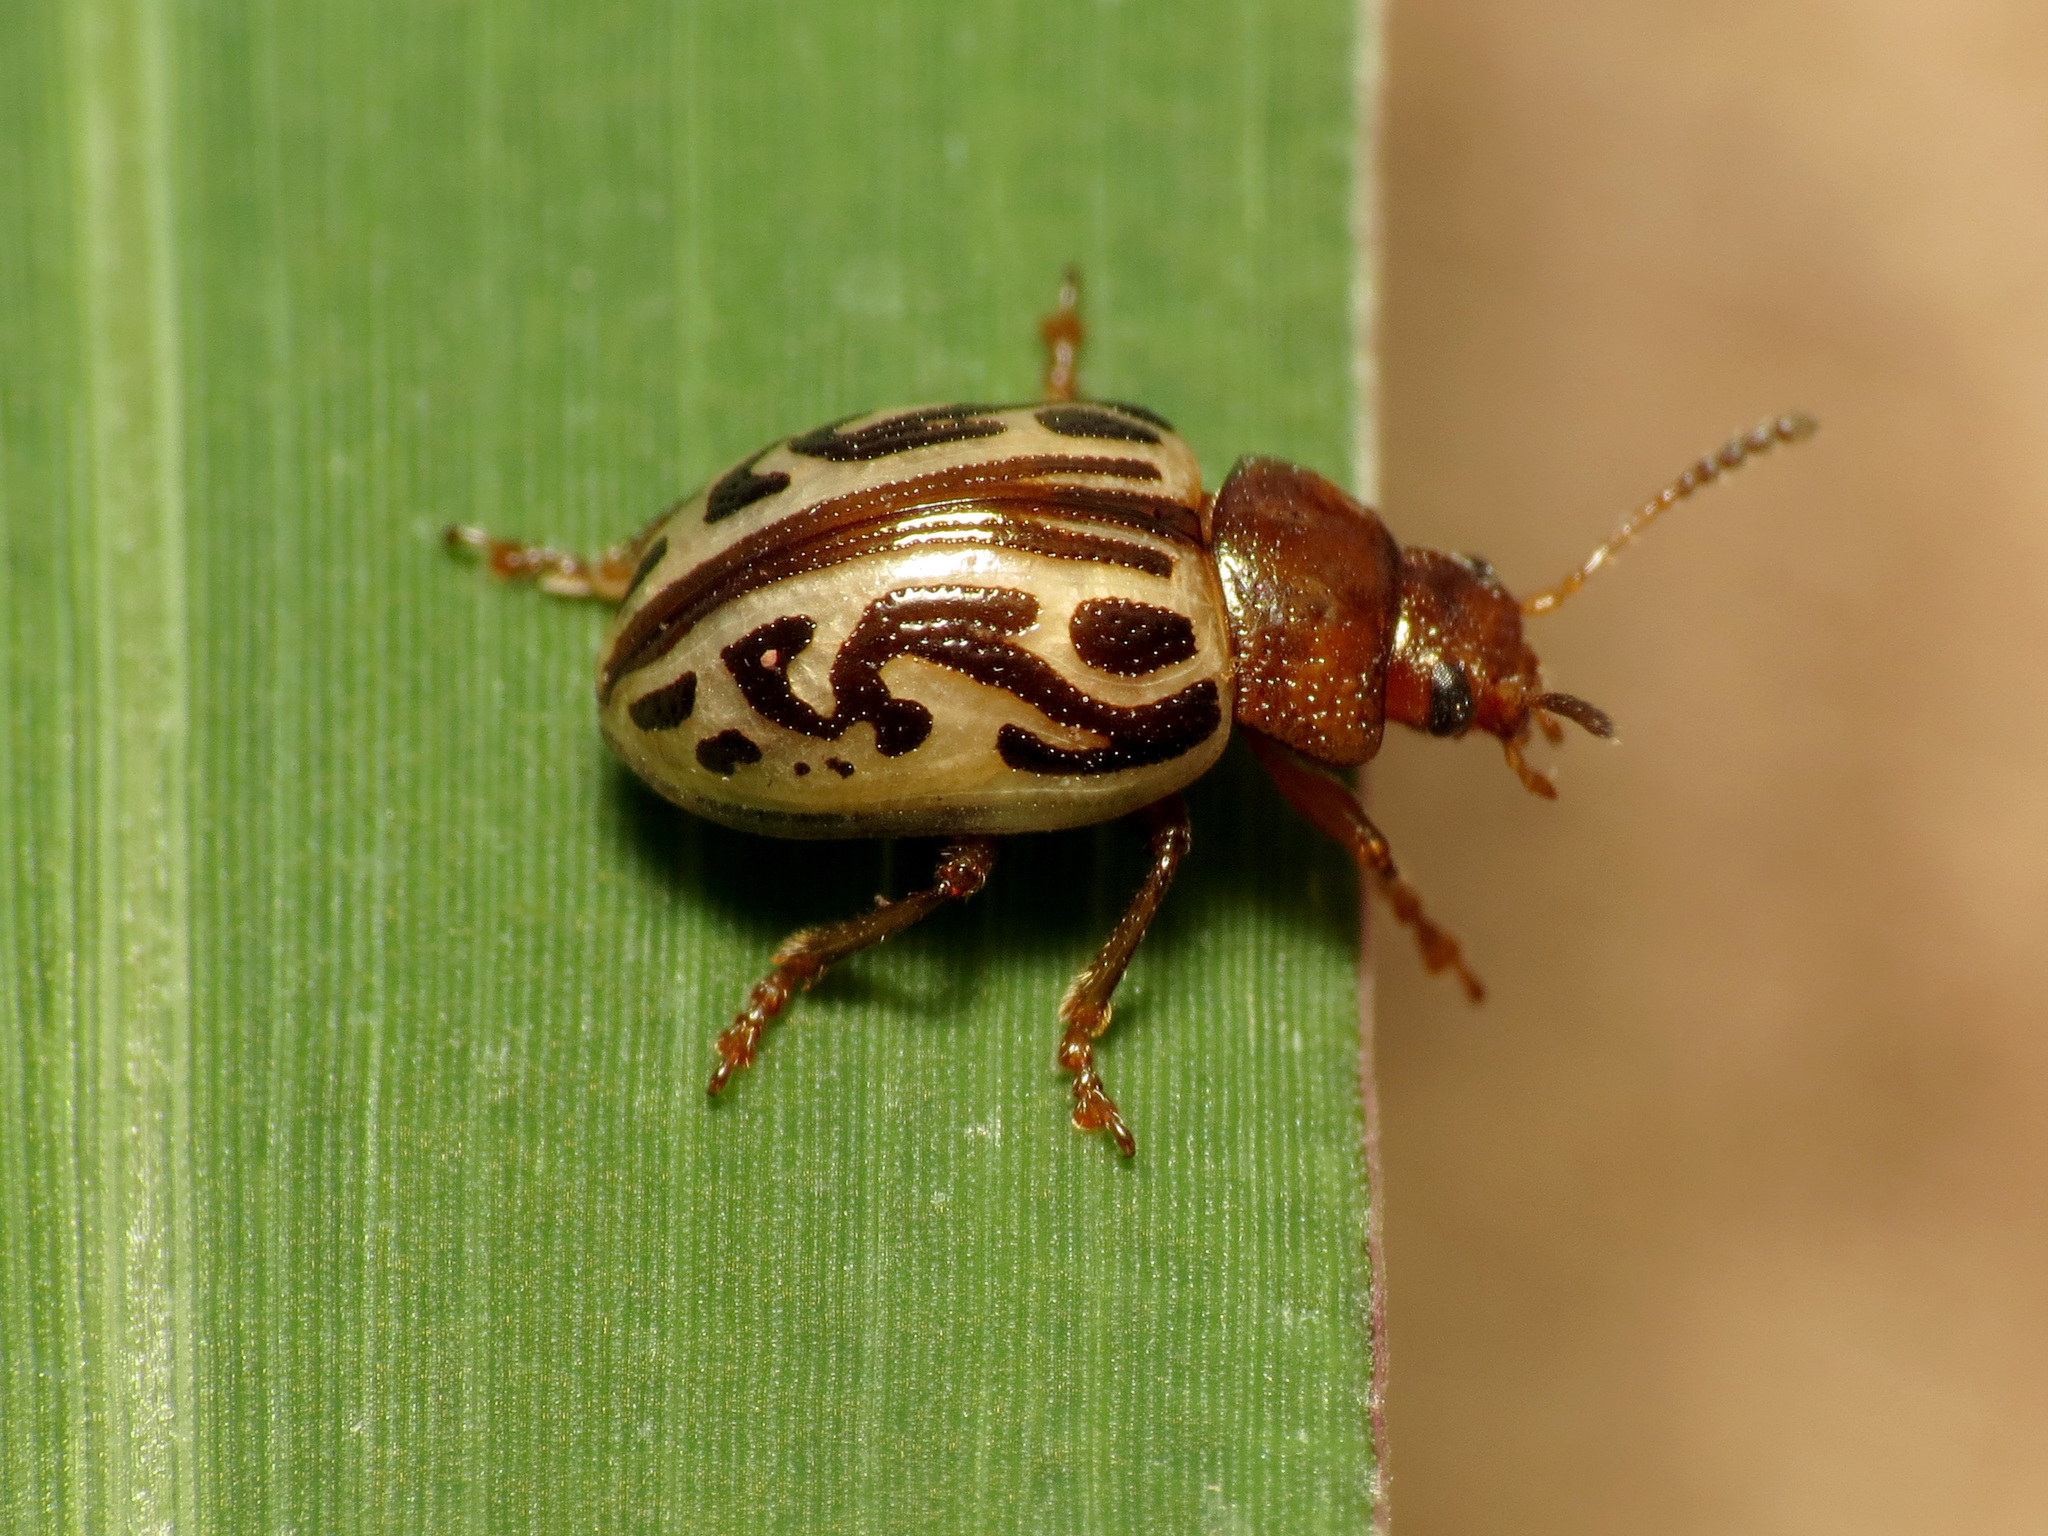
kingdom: Animalia
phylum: Arthropoda
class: Insecta
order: Coleoptera
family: Chrysomelidae
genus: Calligrapha
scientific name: Calligrapha
